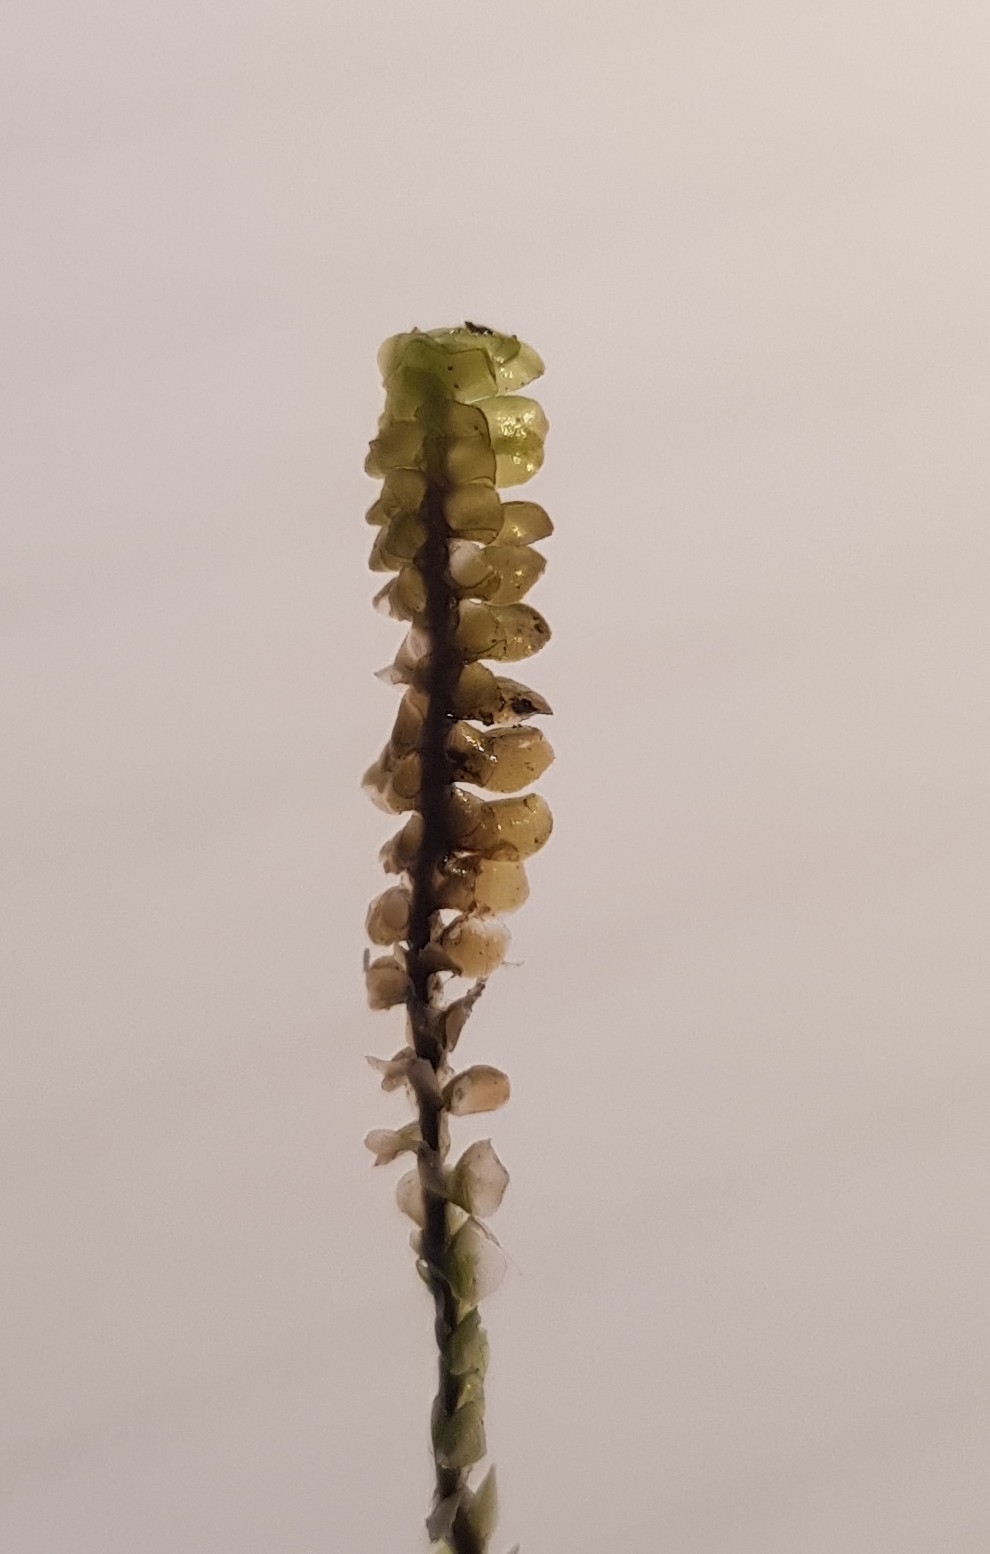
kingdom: Plantae
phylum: Marchantiophyta
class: Jungermanniopsida
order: Jungermanniales
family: Scapaniaceae
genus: Scapania
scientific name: Scapania aspera
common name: Rough earwort
